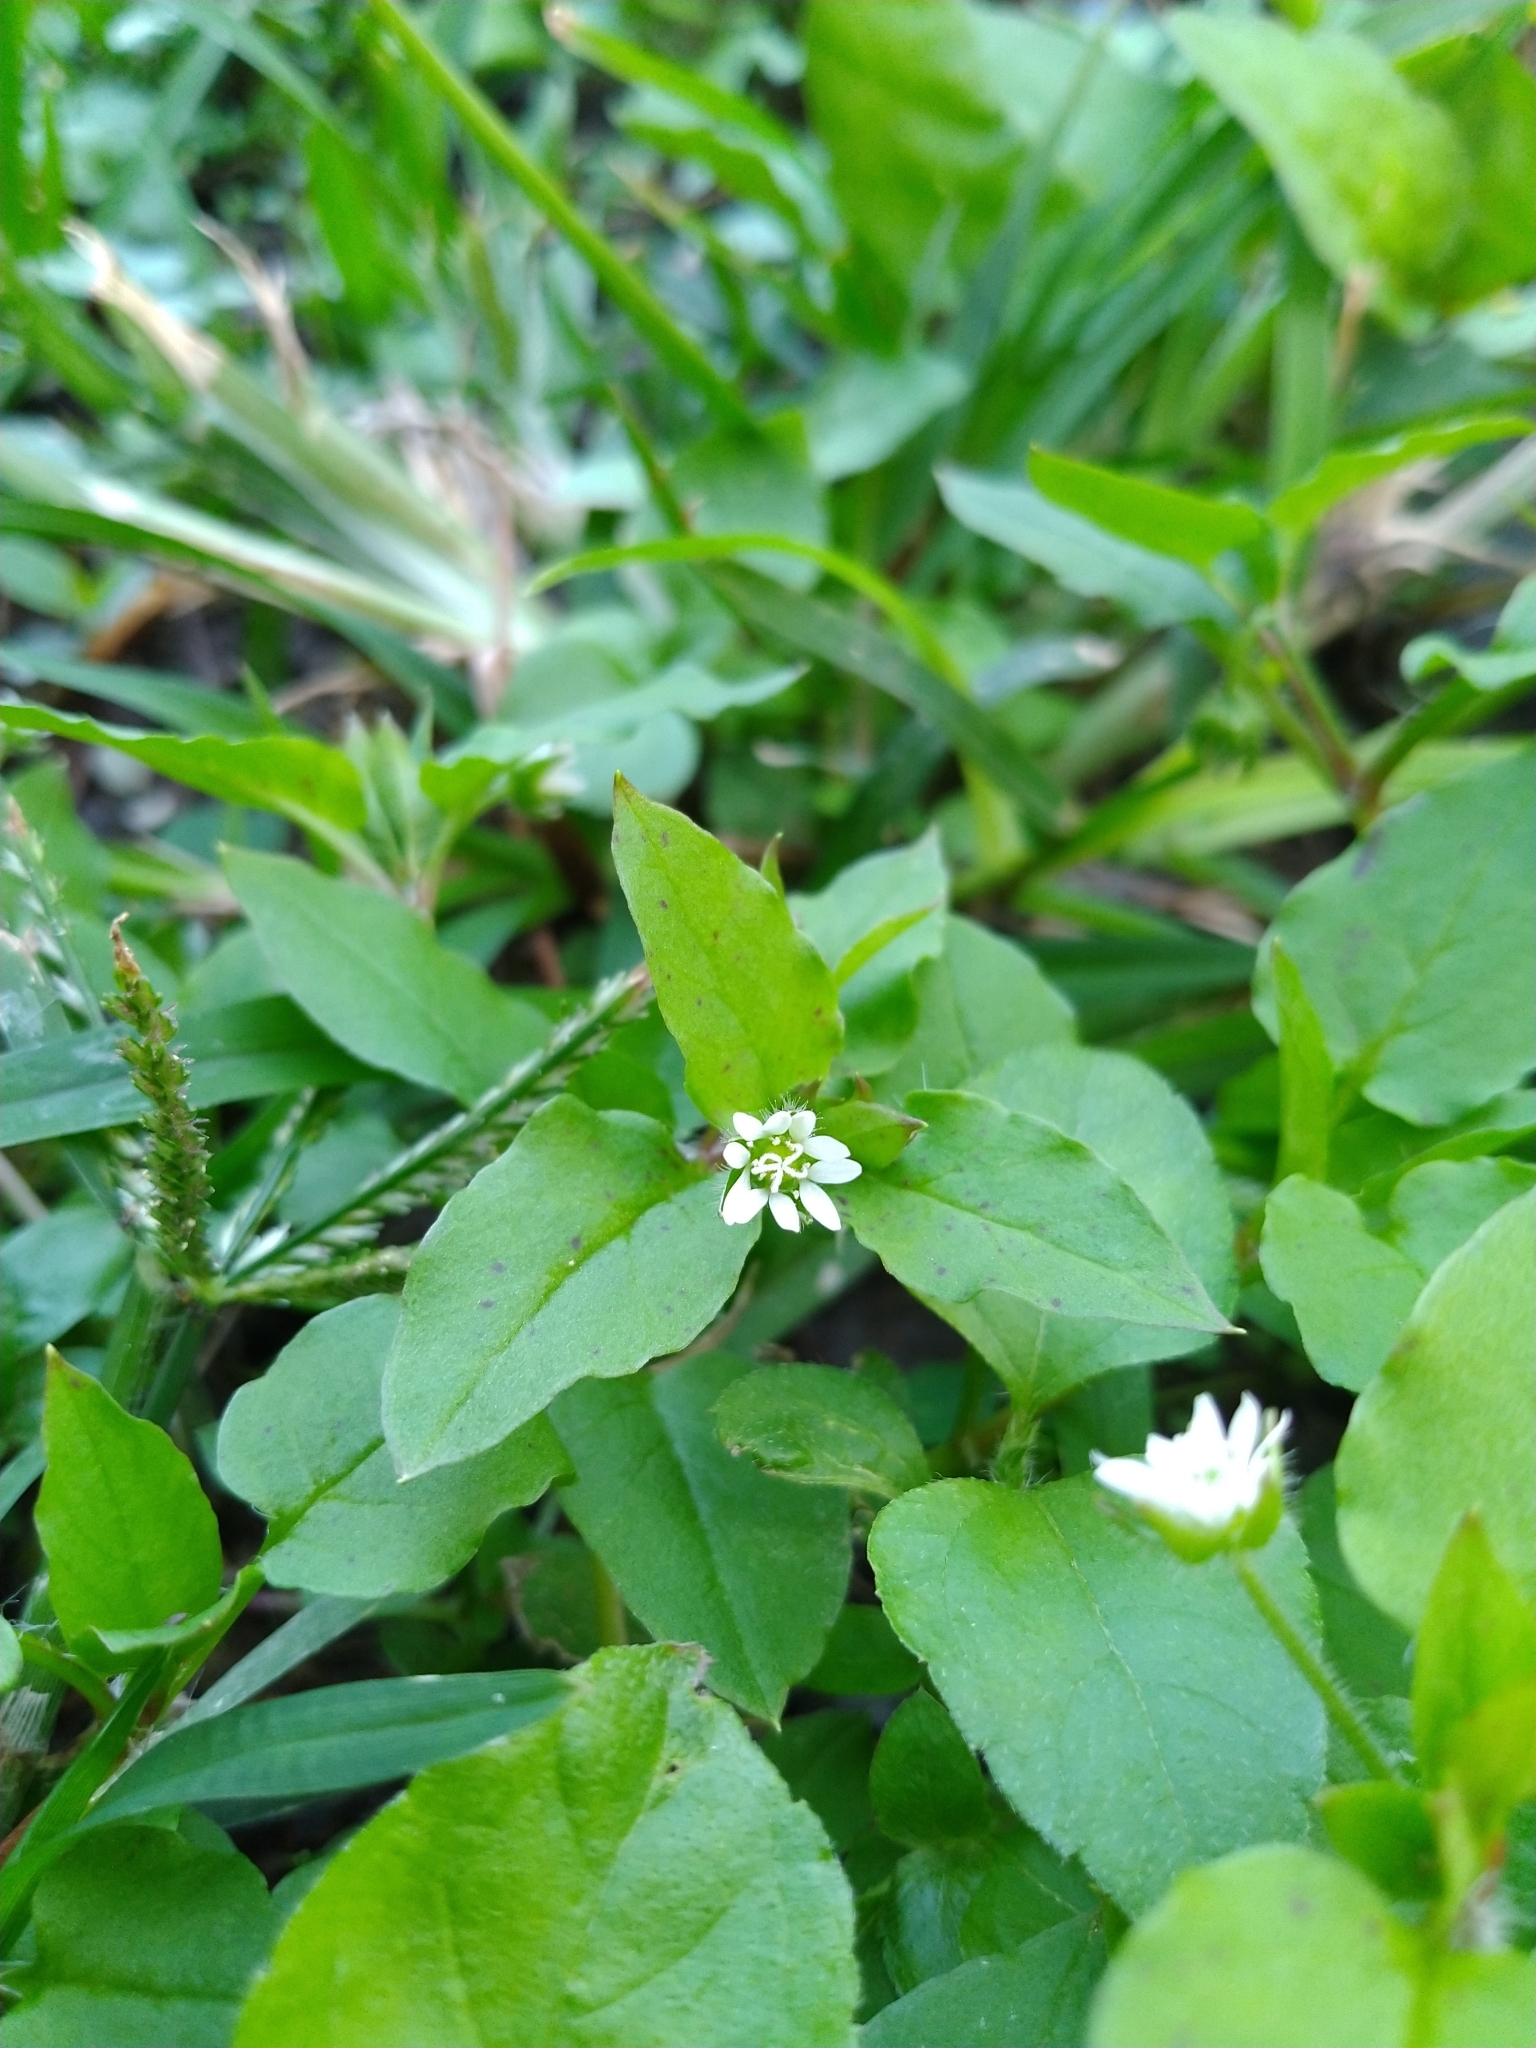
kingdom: Plantae
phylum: Tracheophyta
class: Magnoliopsida
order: Caryophyllales
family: Caryophyllaceae
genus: Stellaria
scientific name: Stellaria aquatica
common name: Water chickweed
